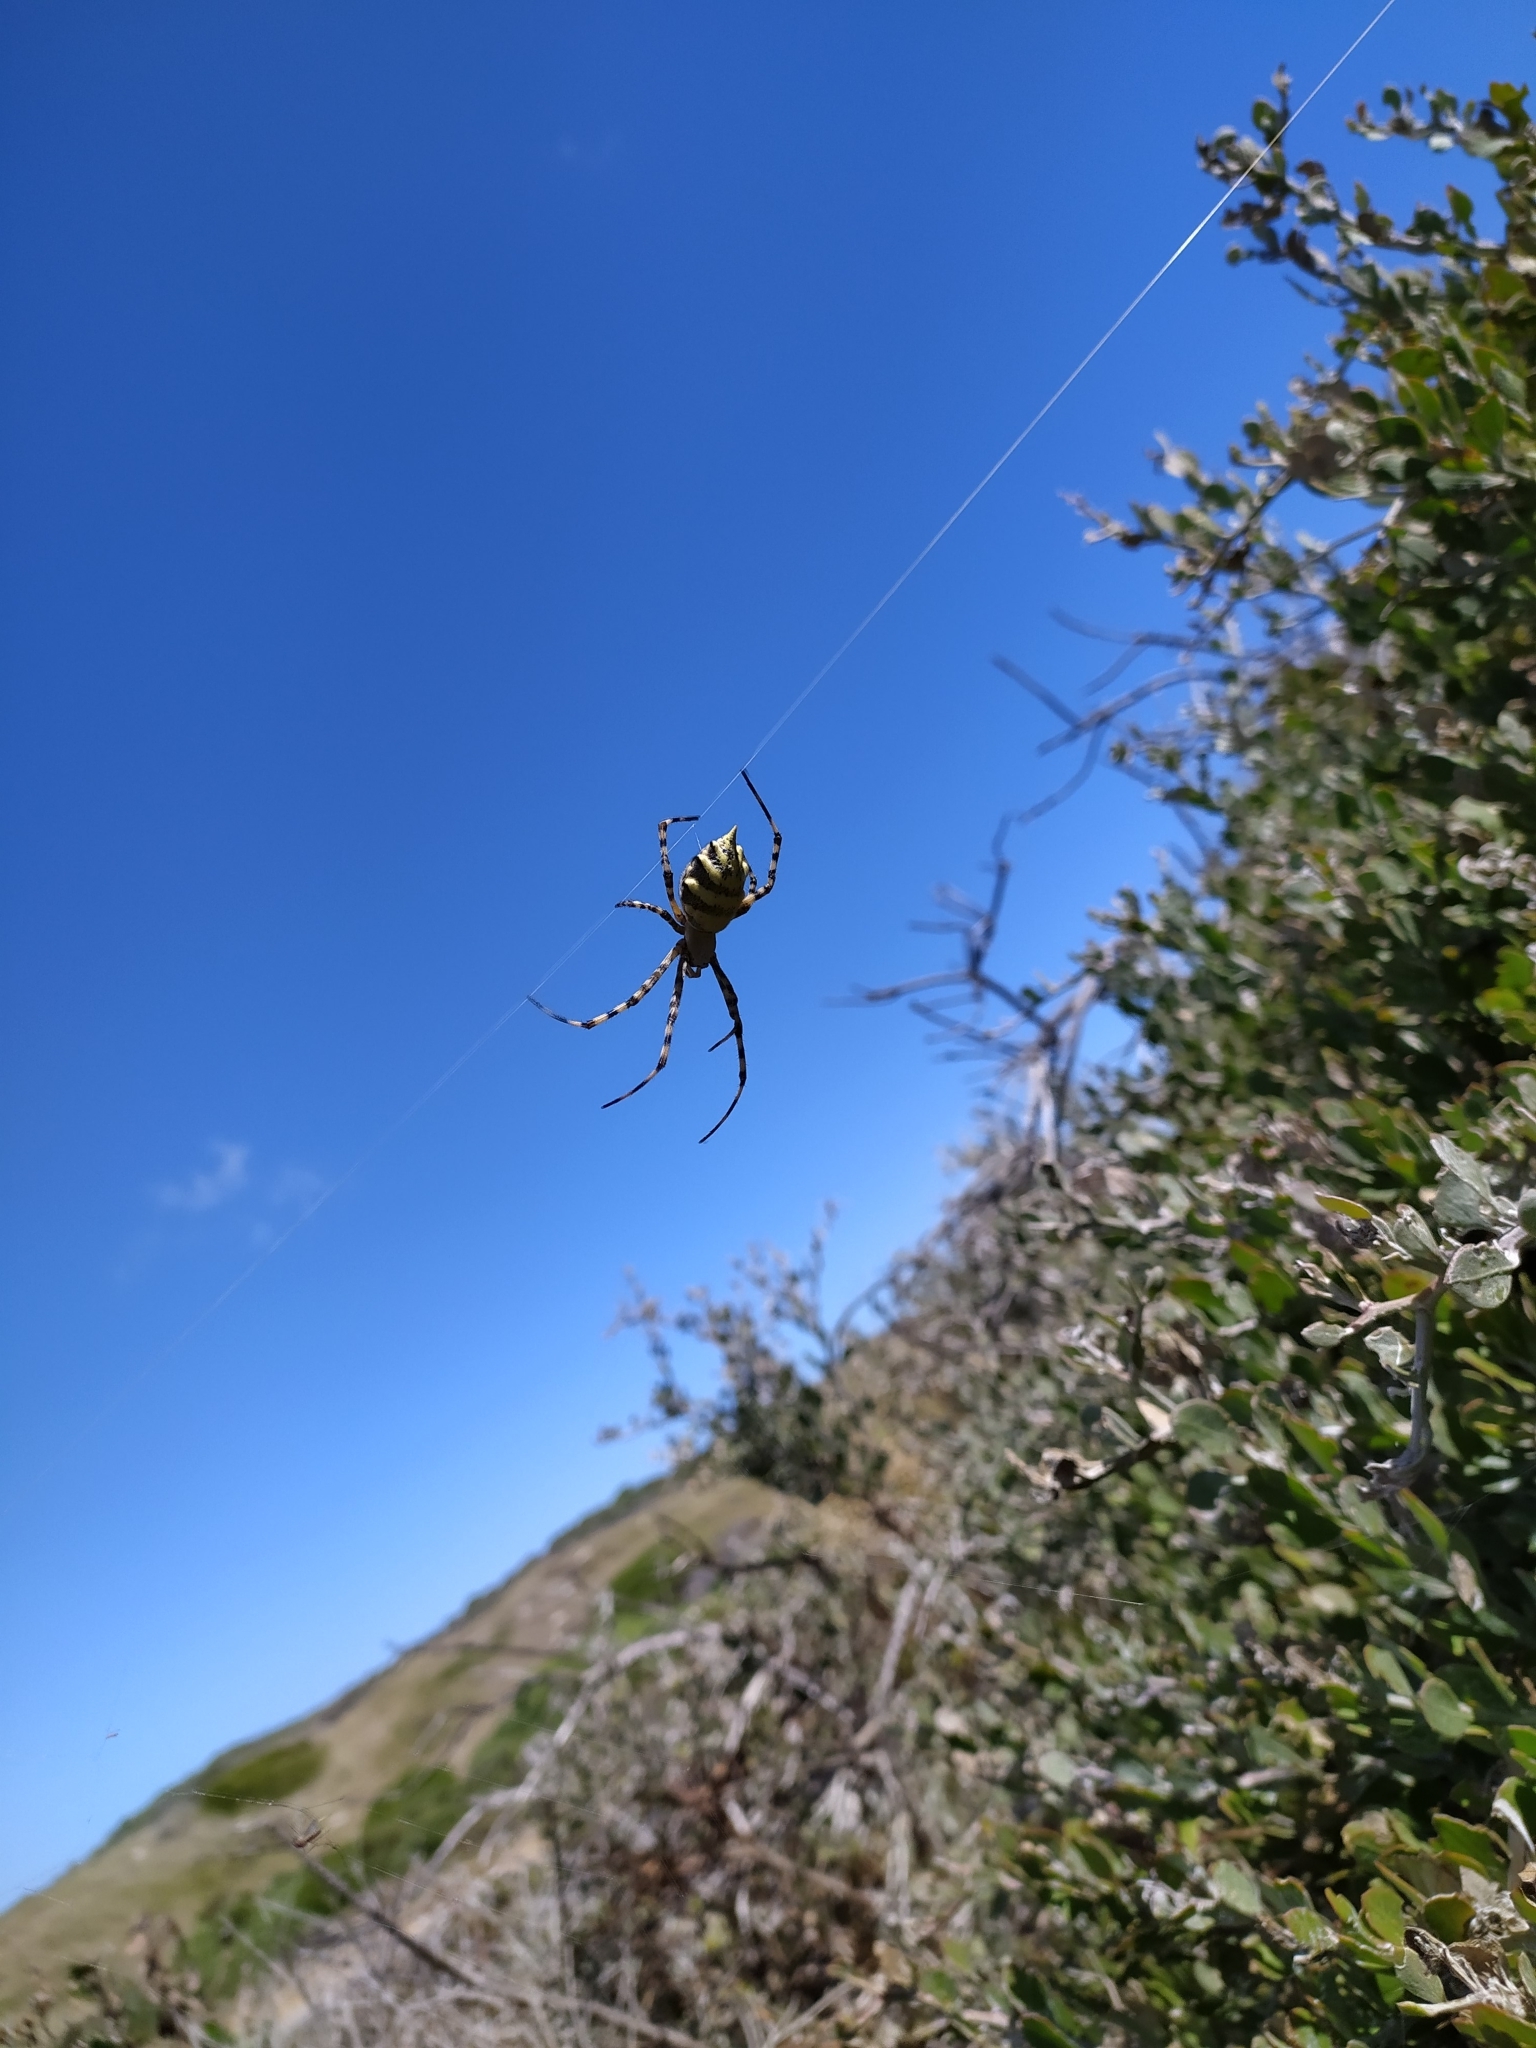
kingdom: Animalia
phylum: Arthropoda
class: Arachnida
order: Araneae
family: Araneidae
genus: Argiope
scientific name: Argiope australis
